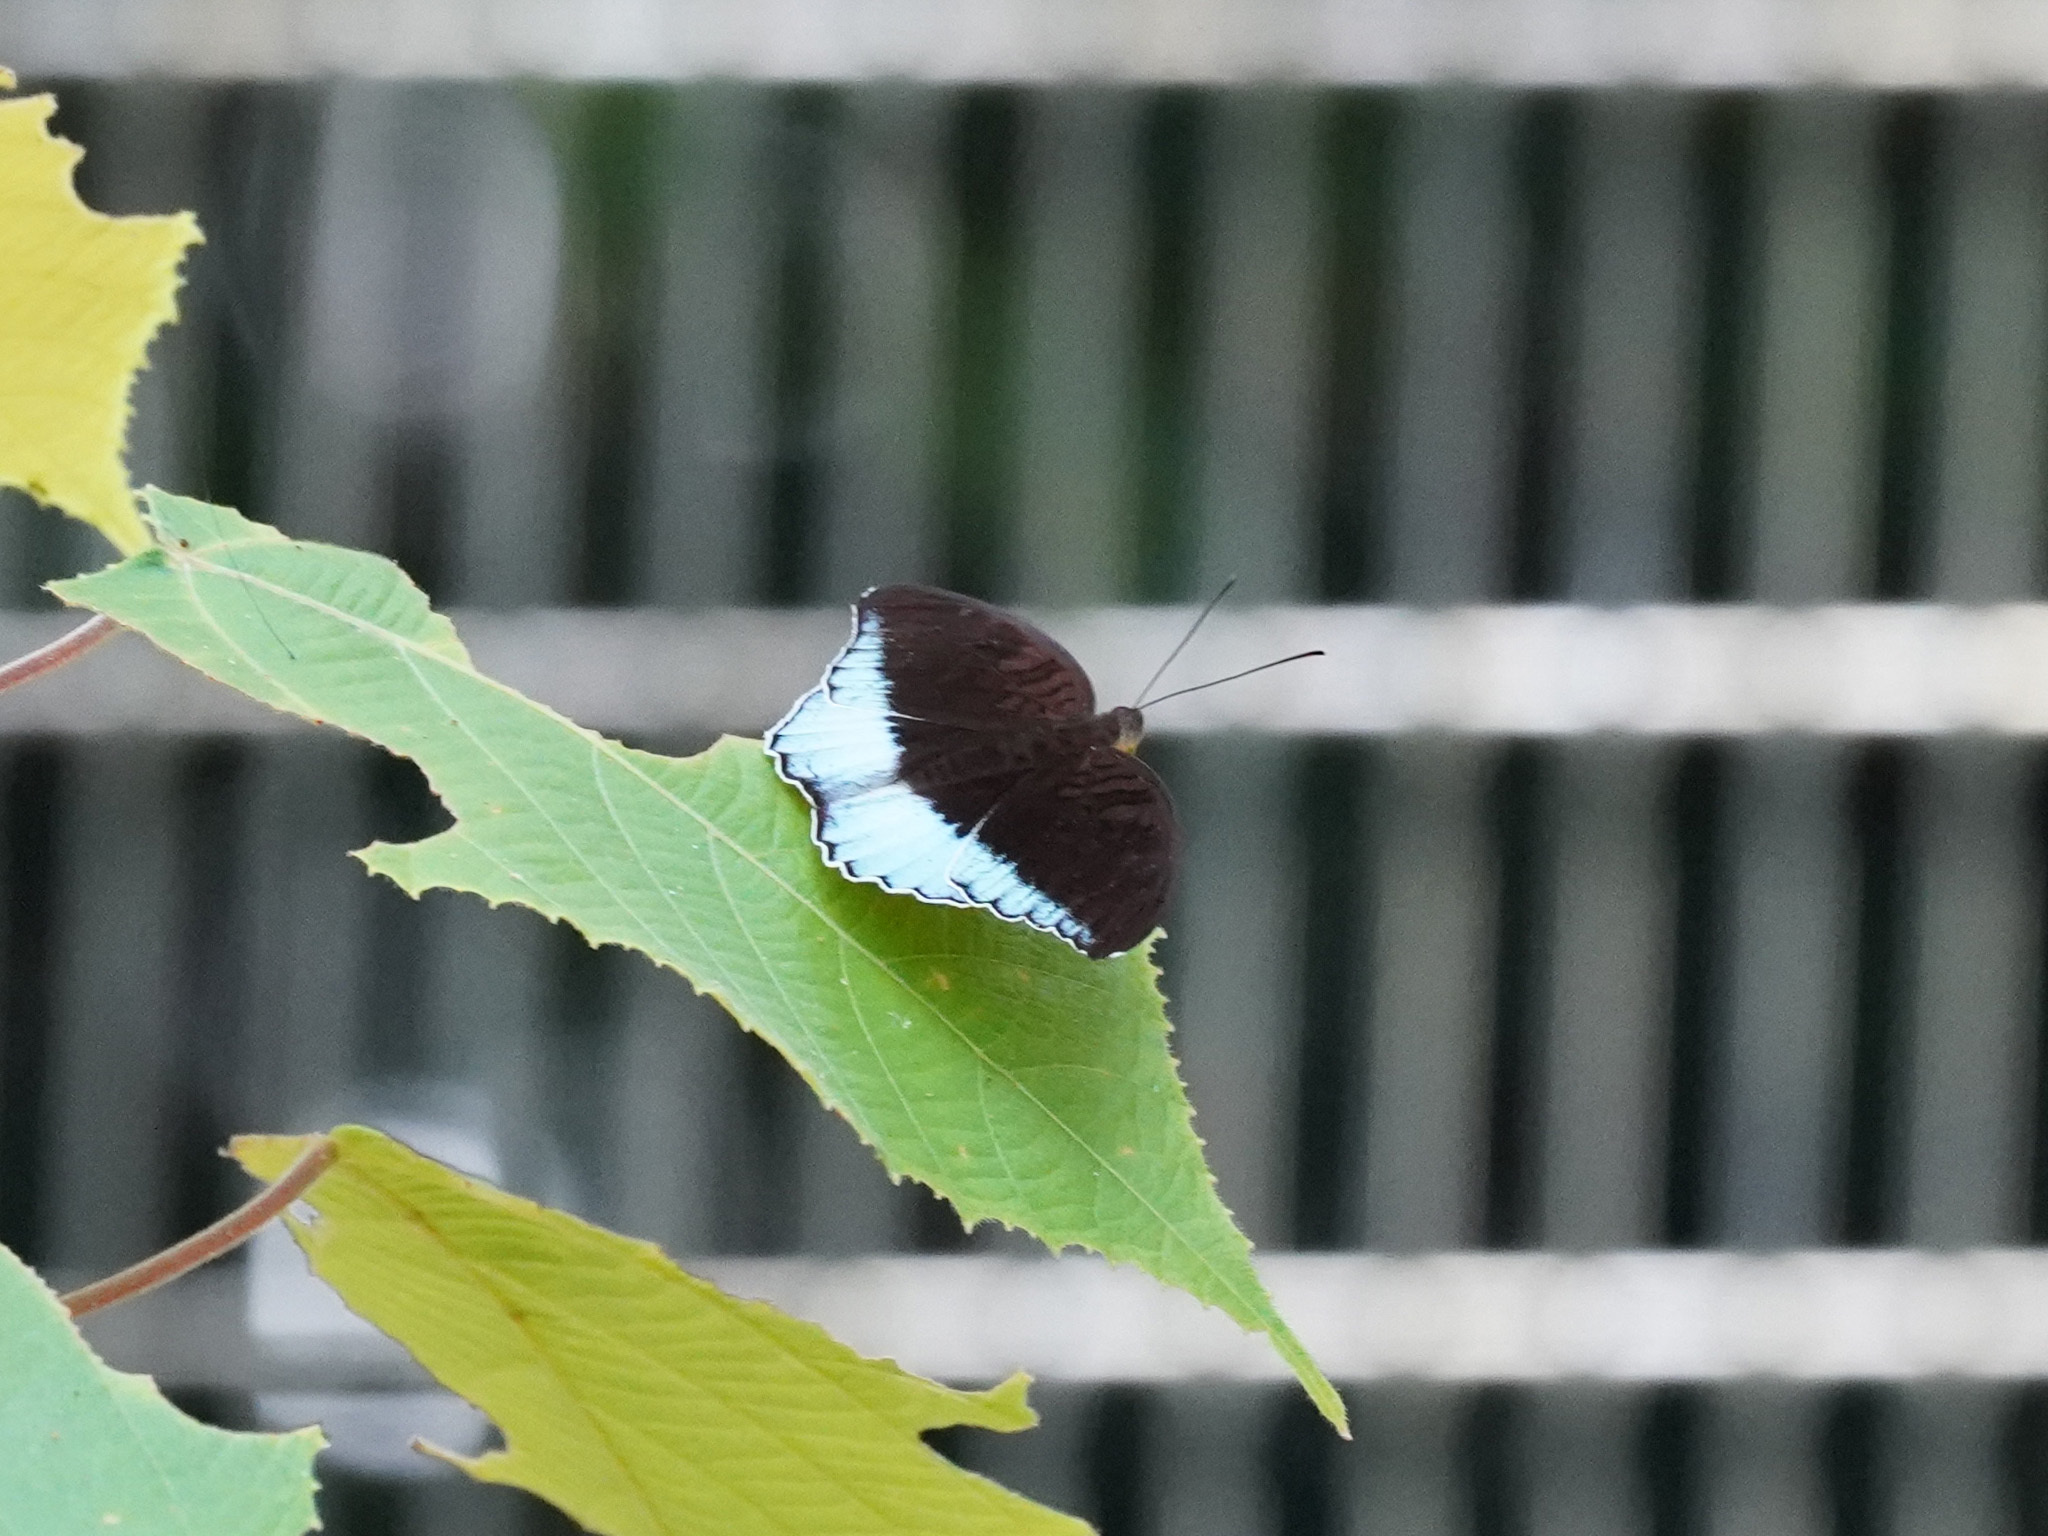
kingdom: Animalia
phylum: Arthropoda
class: Insecta
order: Lepidoptera
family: Nymphalidae
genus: Tanaecia
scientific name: Tanaecia iapis
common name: Horsfield's baron
